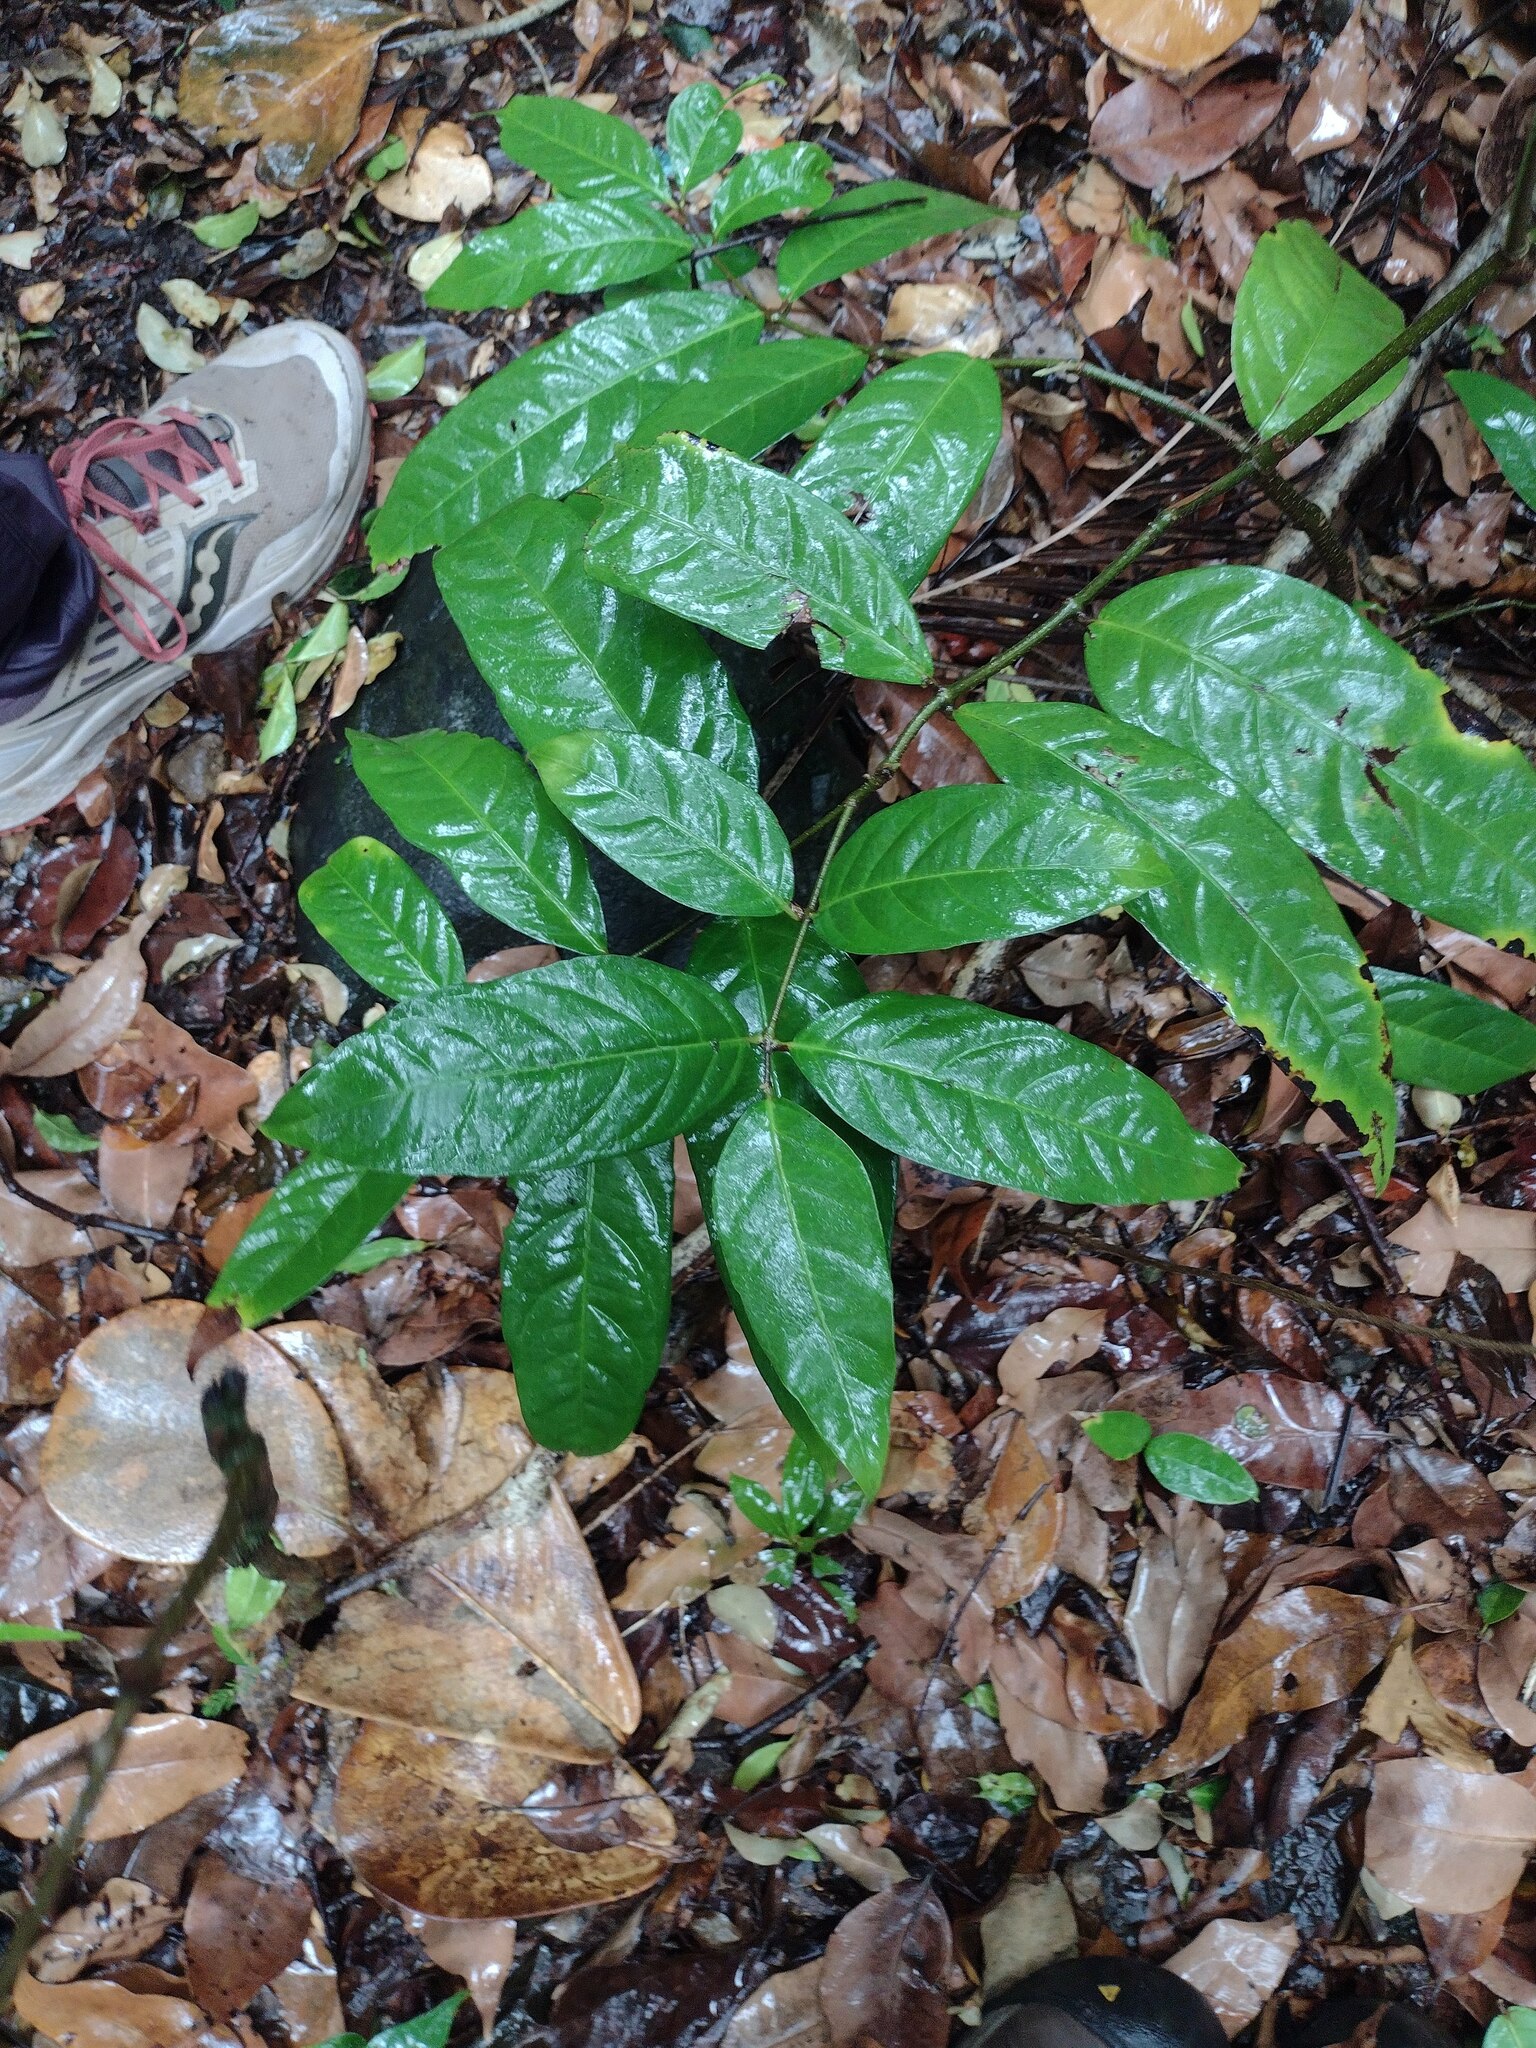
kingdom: Plantae
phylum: Tracheophyta
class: Magnoliopsida
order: Malpighiales
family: Malpighiaceae
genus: Hiptage
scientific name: Hiptage benghalensis
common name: Hiptage
